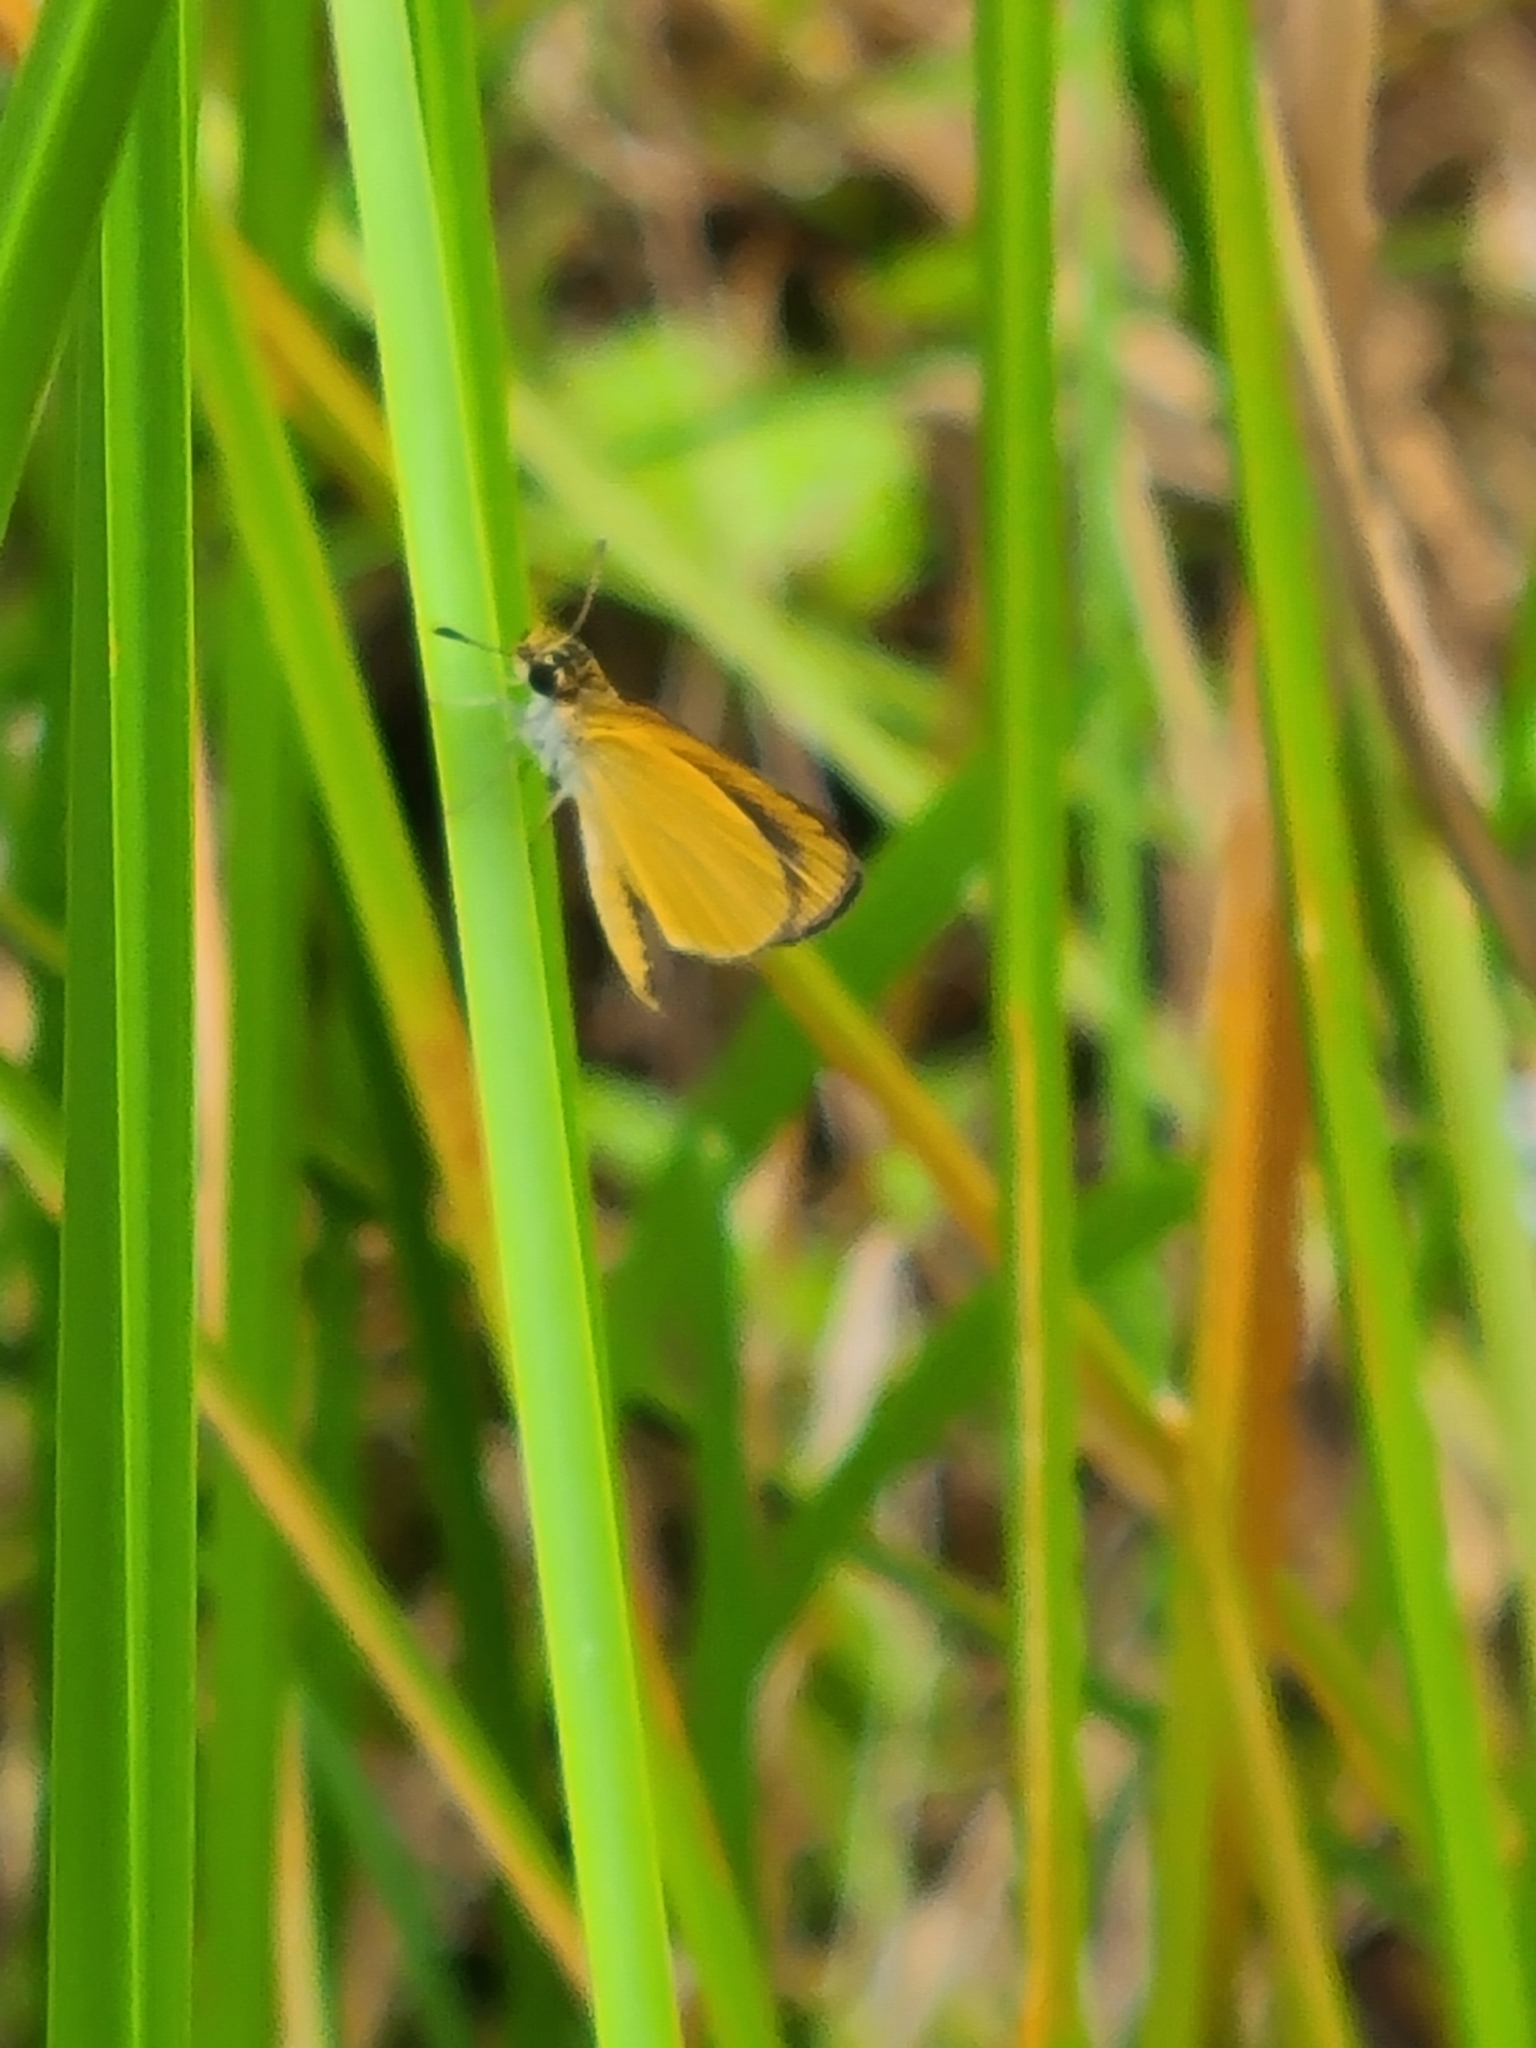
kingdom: Animalia
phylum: Arthropoda
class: Insecta
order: Lepidoptera
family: Hesperiidae
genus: Ancyloxypha
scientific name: Ancyloxypha numitor
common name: Least skipper
